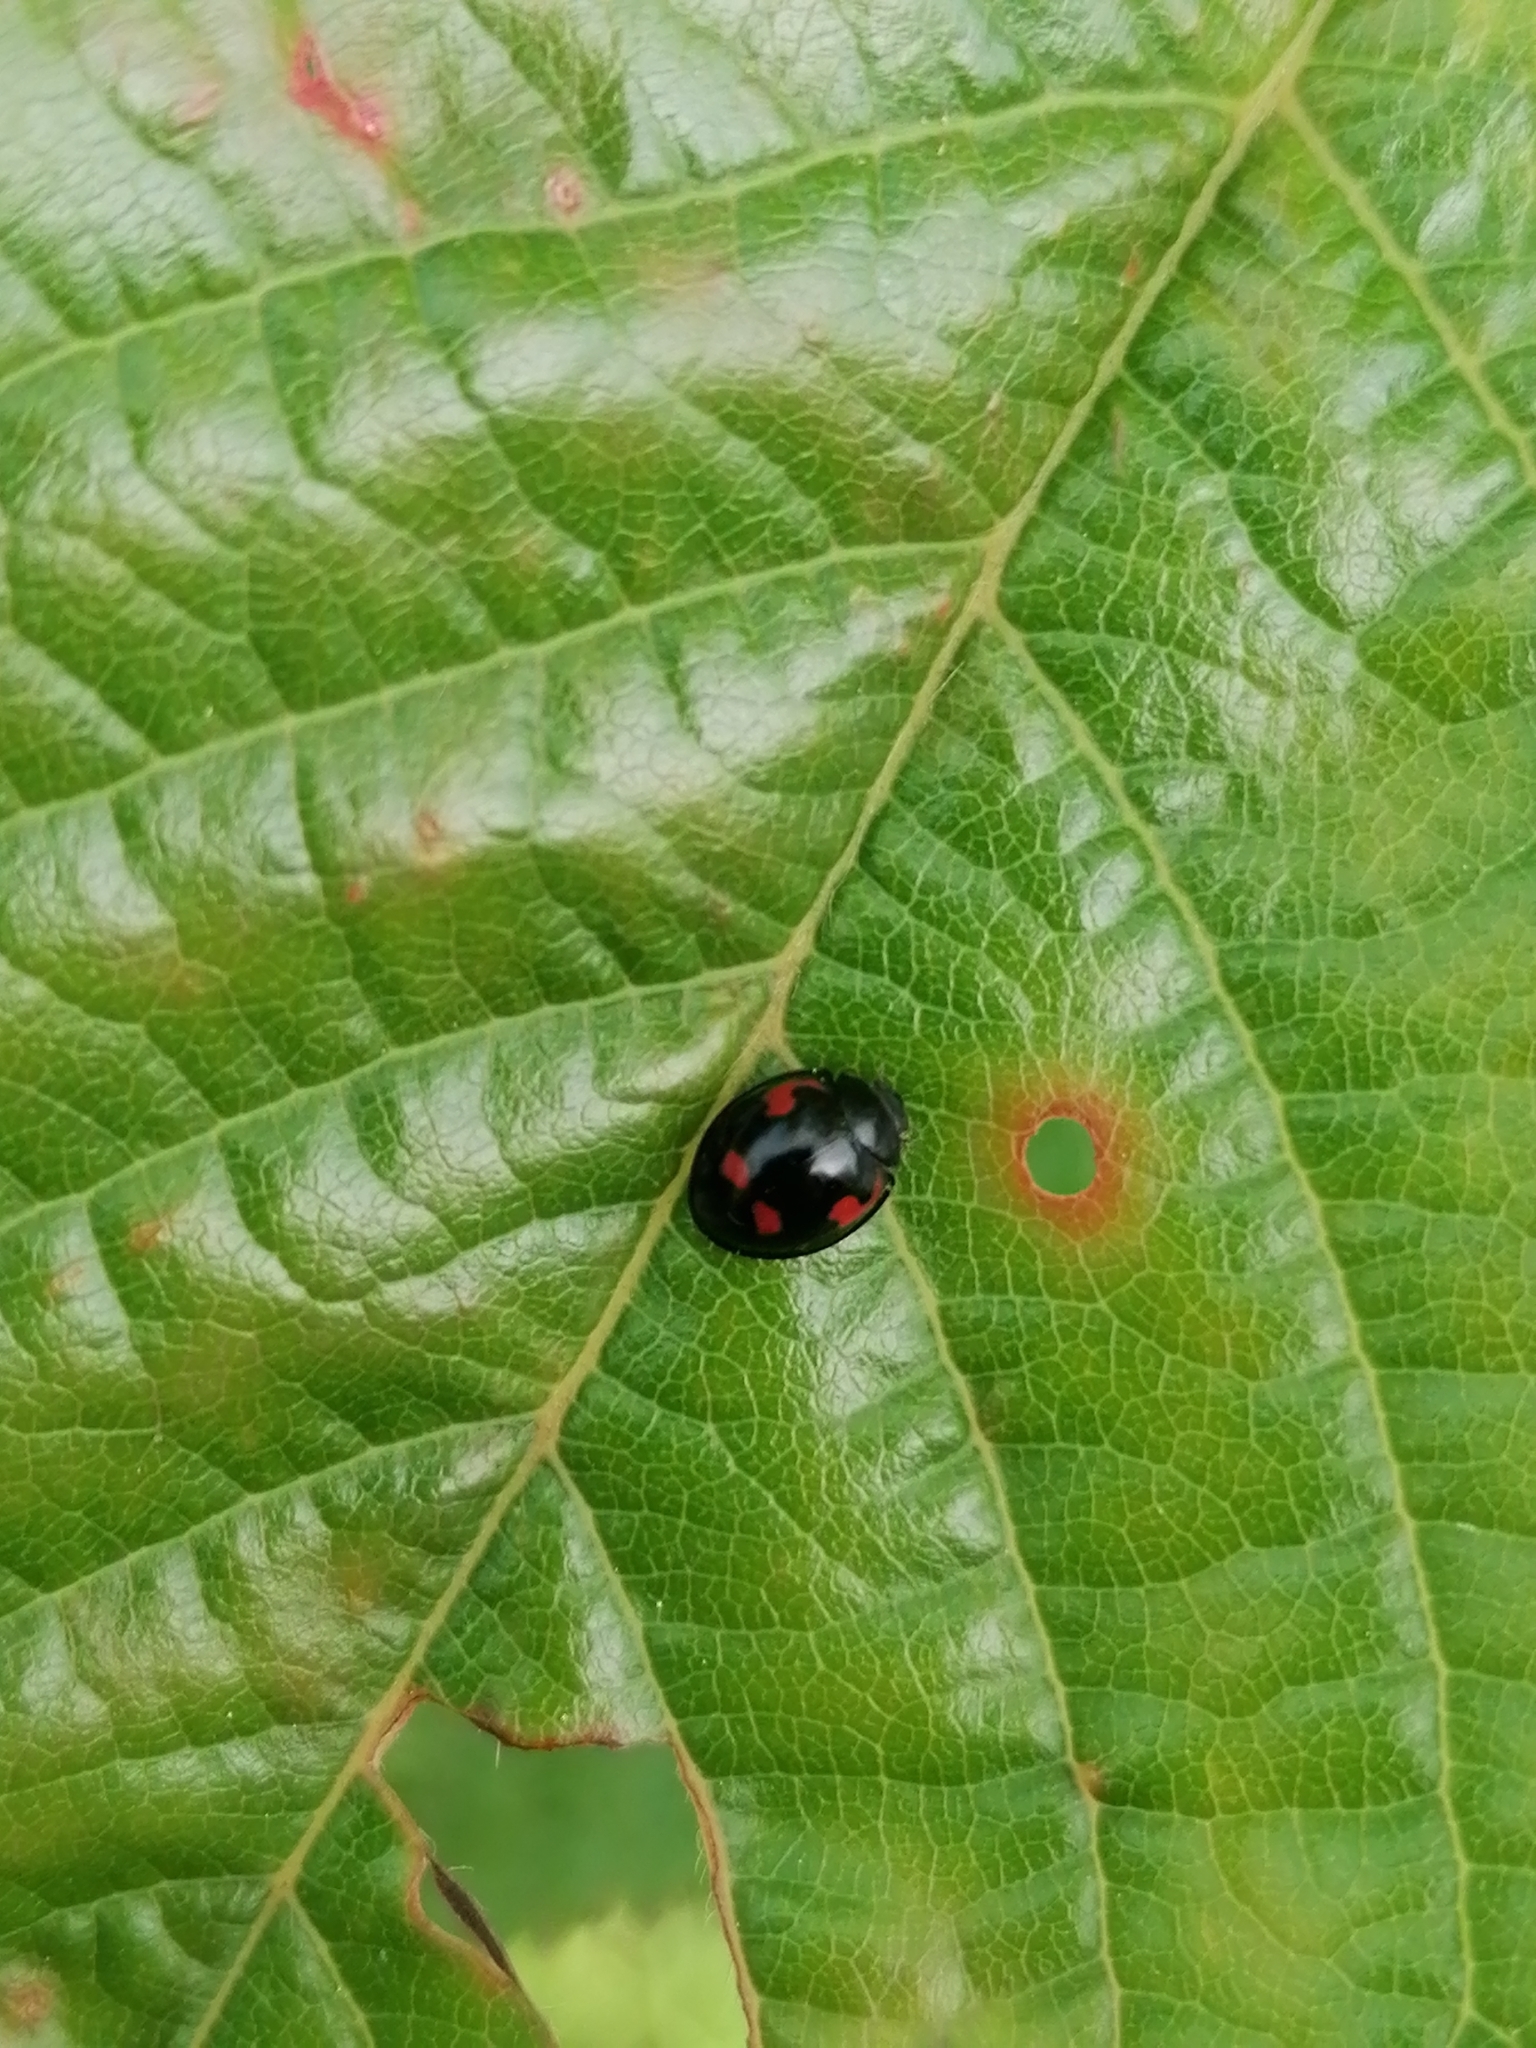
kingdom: Animalia
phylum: Arthropoda
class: Insecta
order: Coleoptera
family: Coccinellidae
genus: Brumus
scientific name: Brumus quadripustulatus
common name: Ladybird beetle
